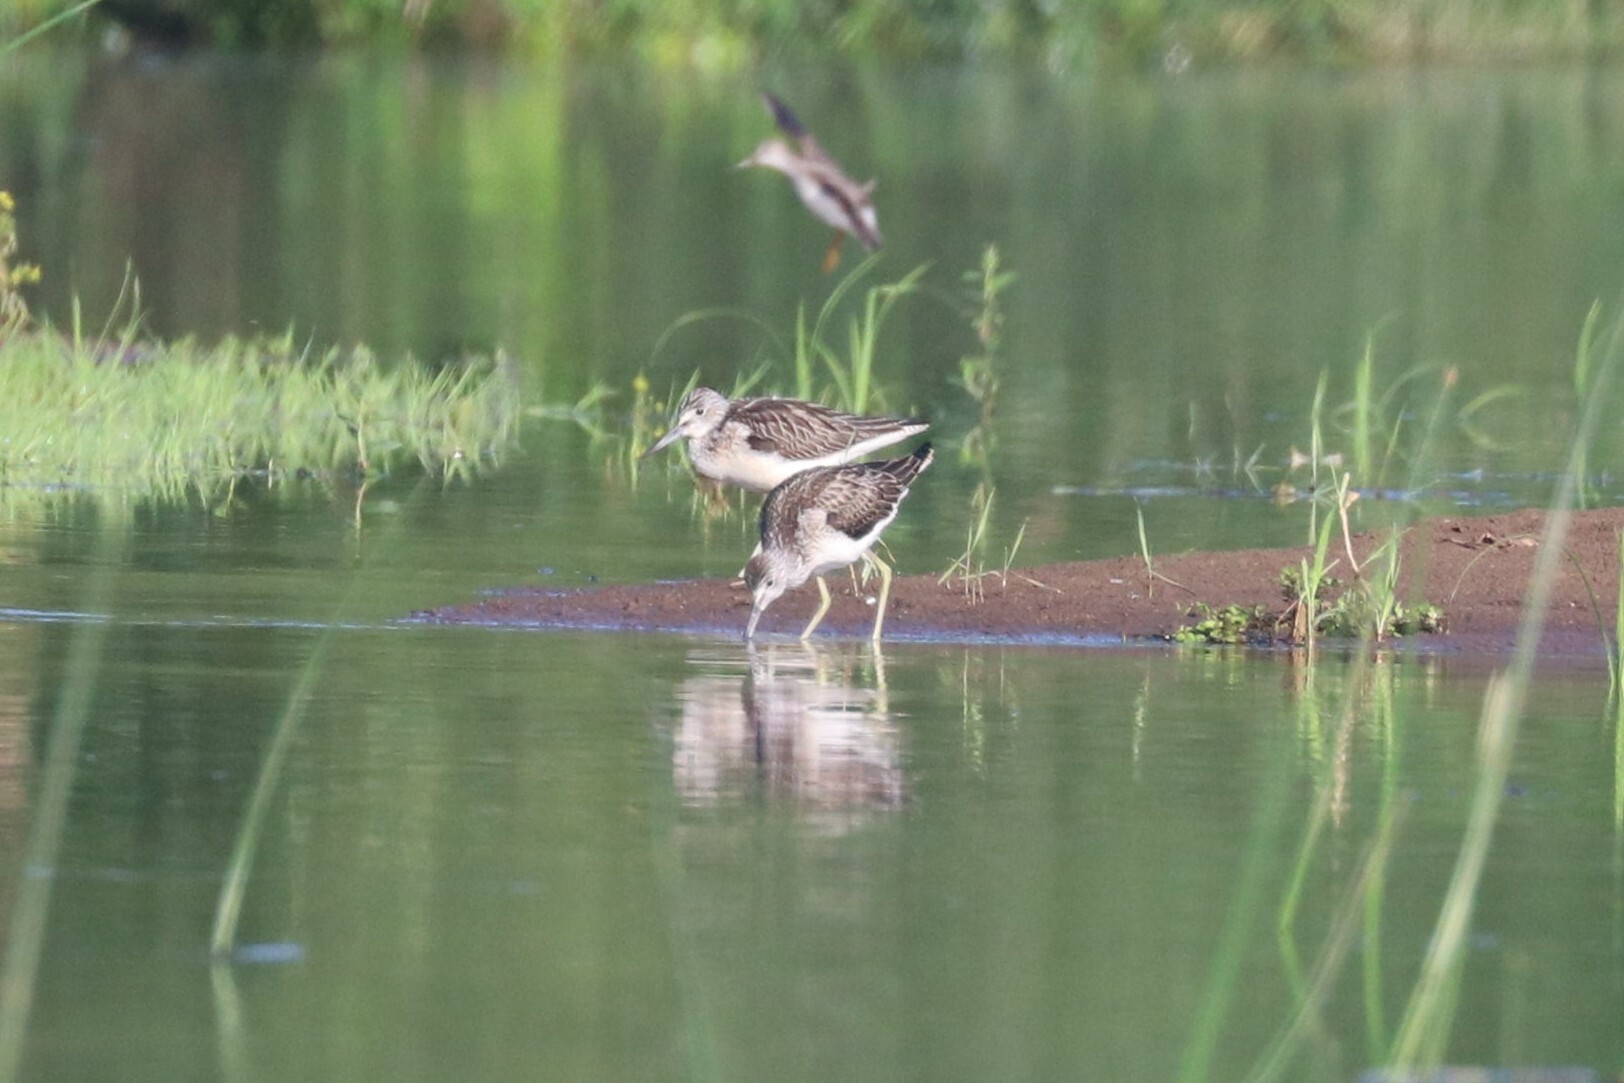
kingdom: Animalia
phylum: Chordata
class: Aves
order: Charadriiformes
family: Scolopacidae
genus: Tringa
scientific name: Tringa nebularia
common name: Common greenshank
